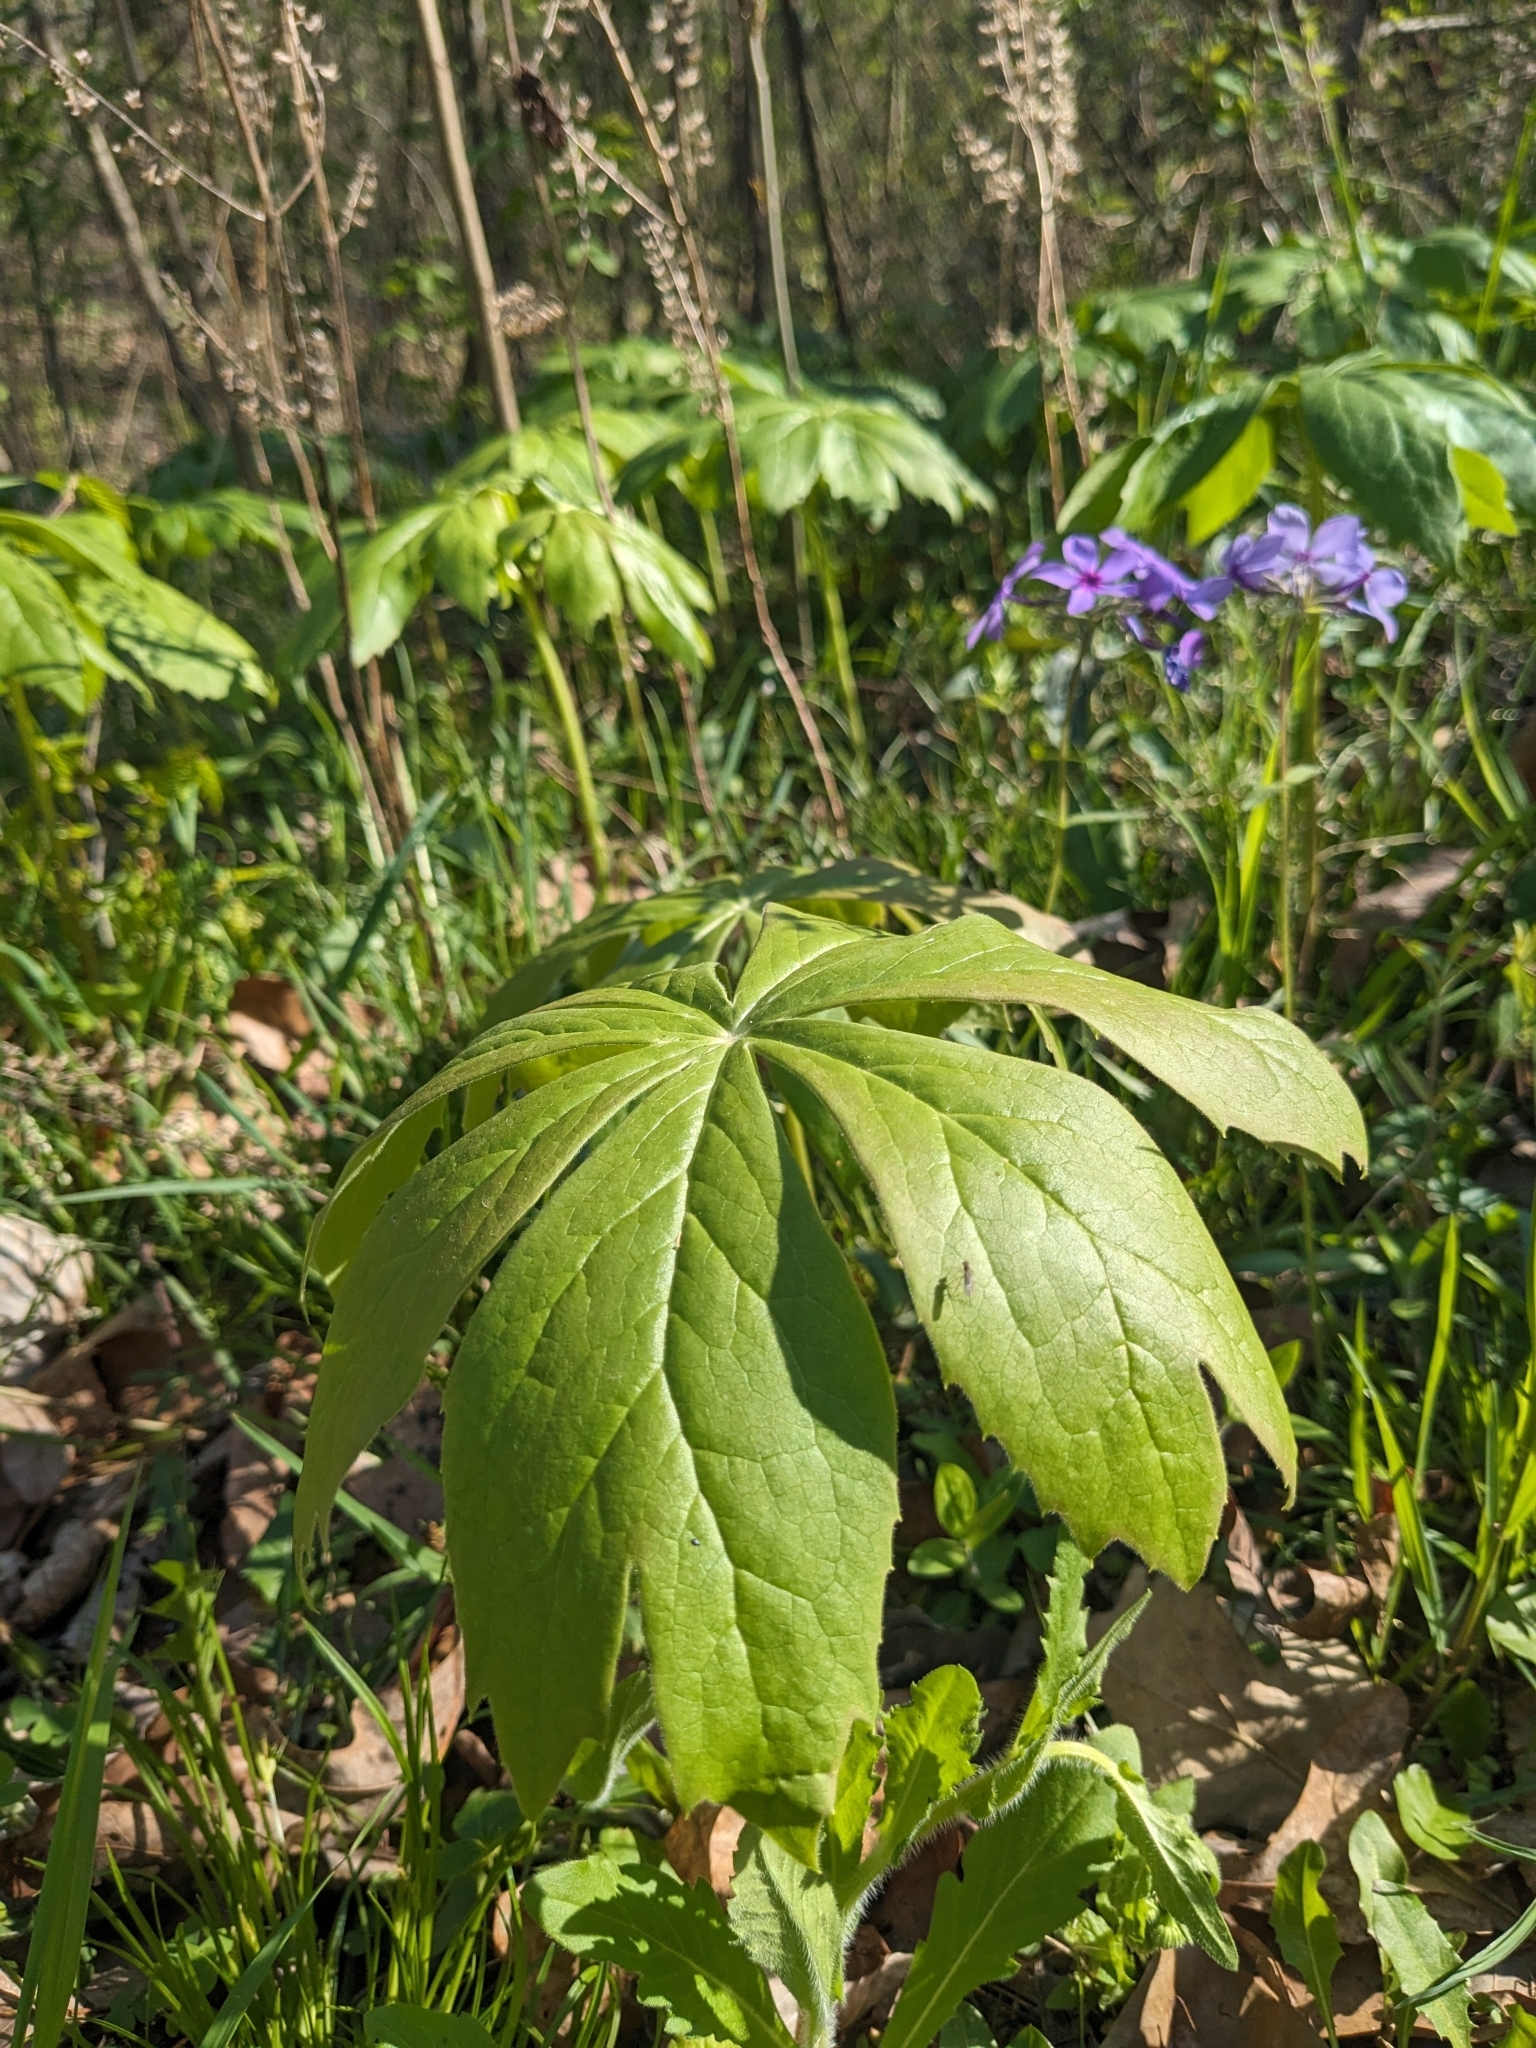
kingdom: Plantae
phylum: Tracheophyta
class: Magnoliopsida
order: Ranunculales
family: Berberidaceae
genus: Podophyllum
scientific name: Podophyllum peltatum
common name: Wild mandrake
